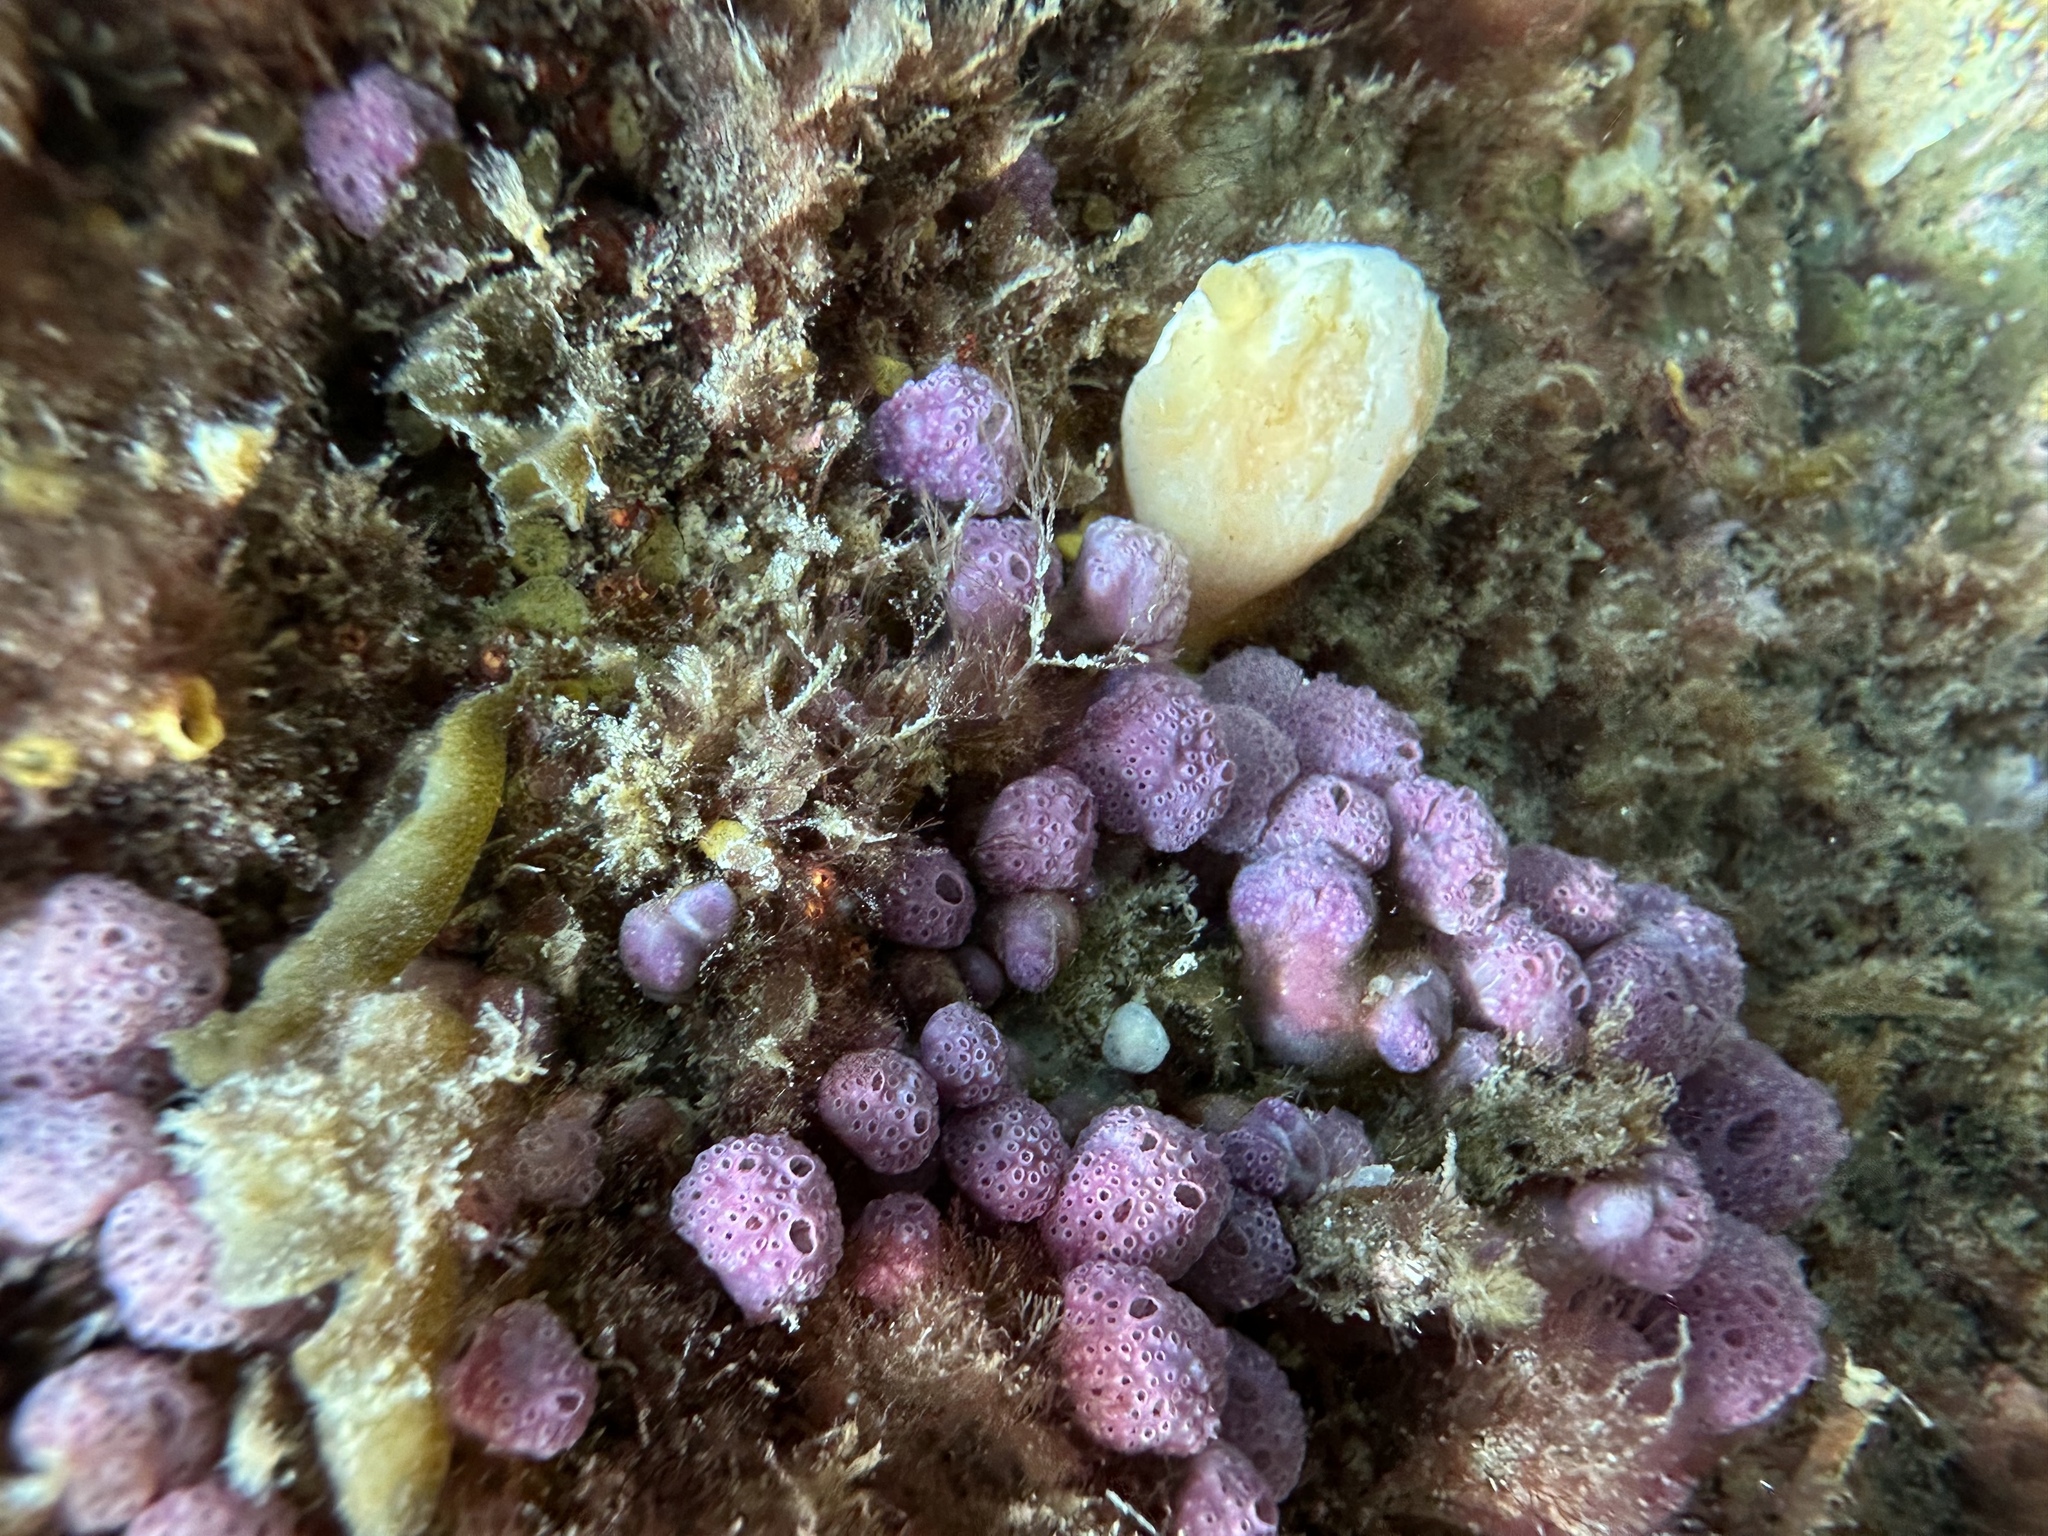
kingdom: Animalia
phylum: Chordata
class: Ascidiacea
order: Aplousobranchia
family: Holozoidae
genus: Hypsistozoa
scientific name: Hypsistozoa fasmeriana
